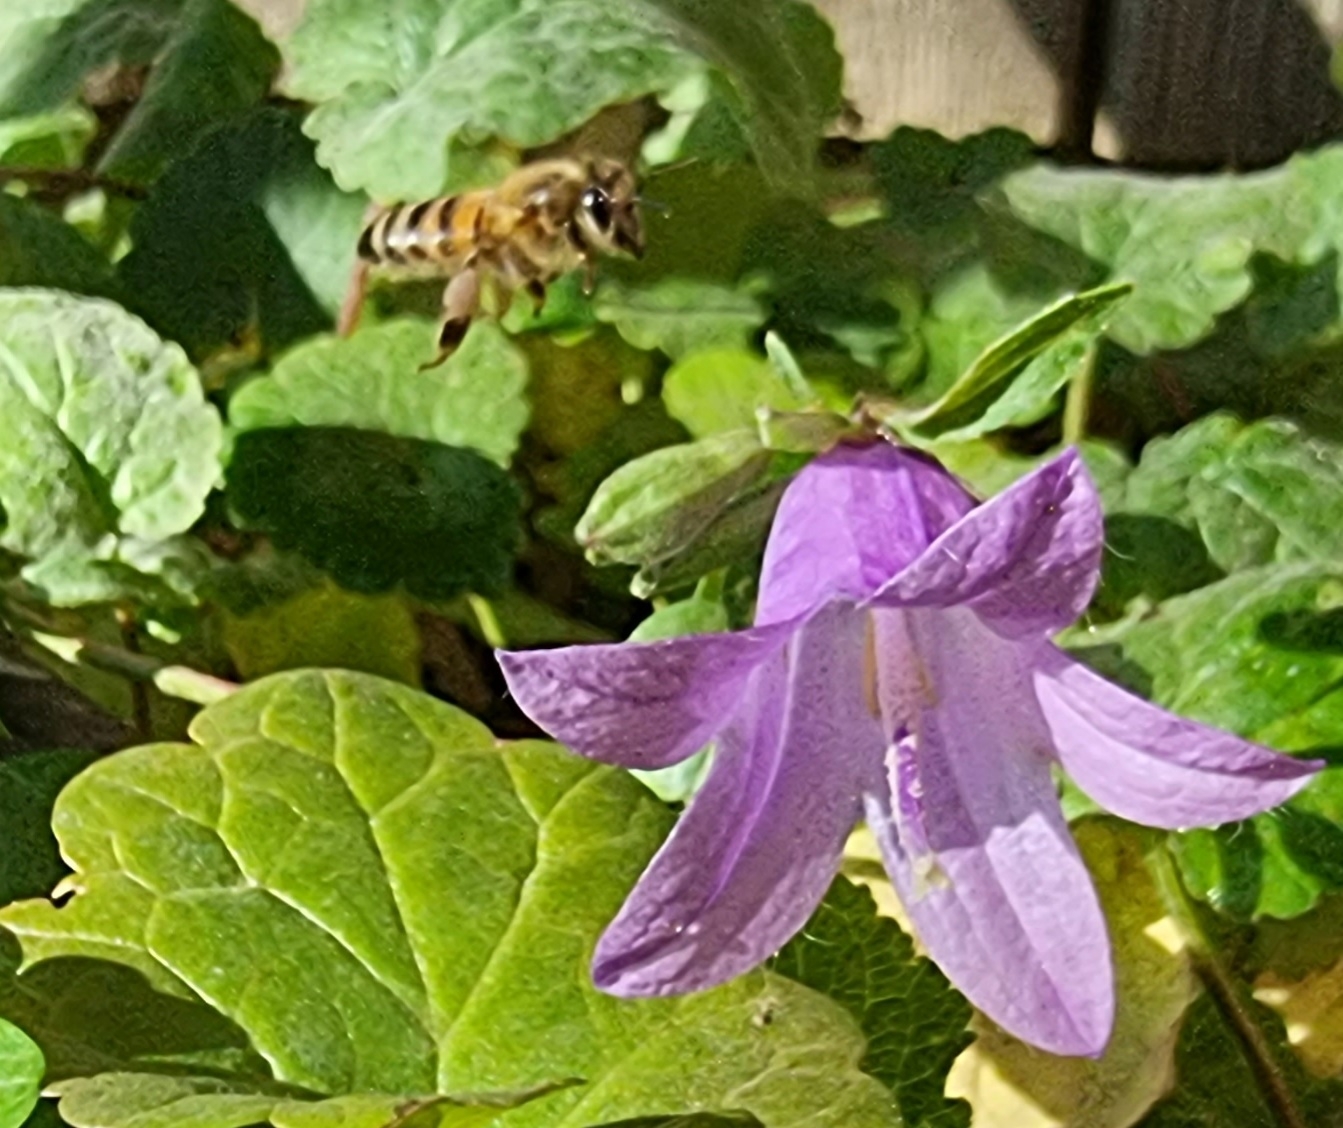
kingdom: Animalia
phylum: Arthropoda
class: Insecta
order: Hymenoptera
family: Apidae
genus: Apis
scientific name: Apis mellifera
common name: Honey bee
